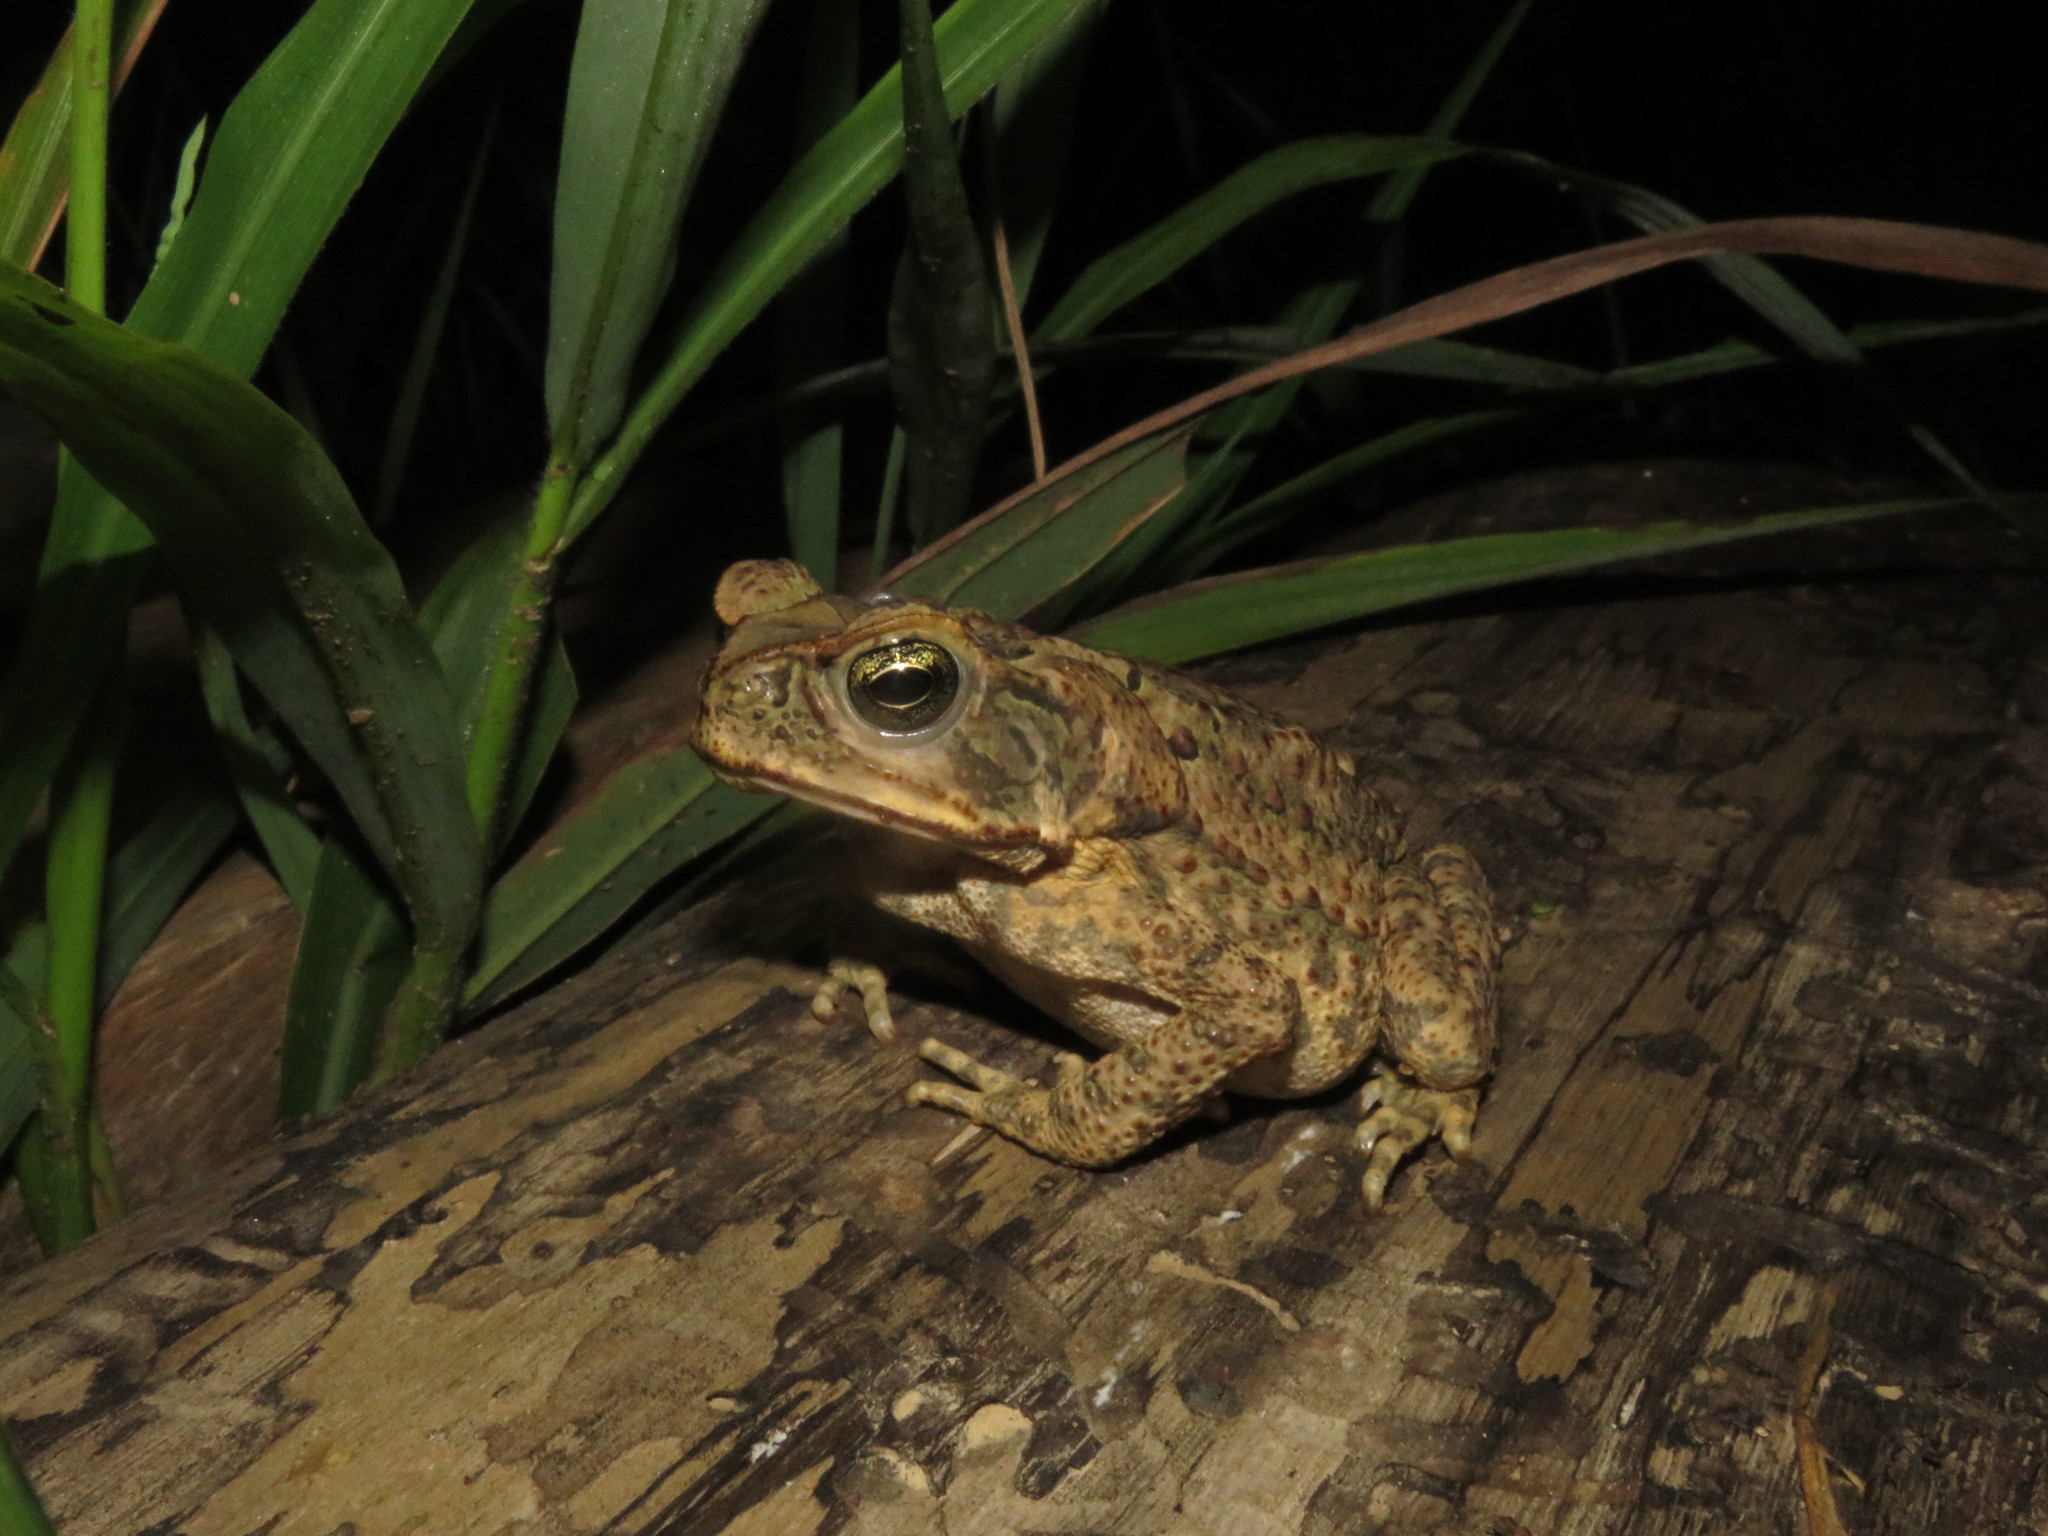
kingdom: Animalia
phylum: Chordata
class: Amphibia
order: Anura
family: Bufonidae
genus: Rhinella
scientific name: Rhinella marina
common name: Cane toad
